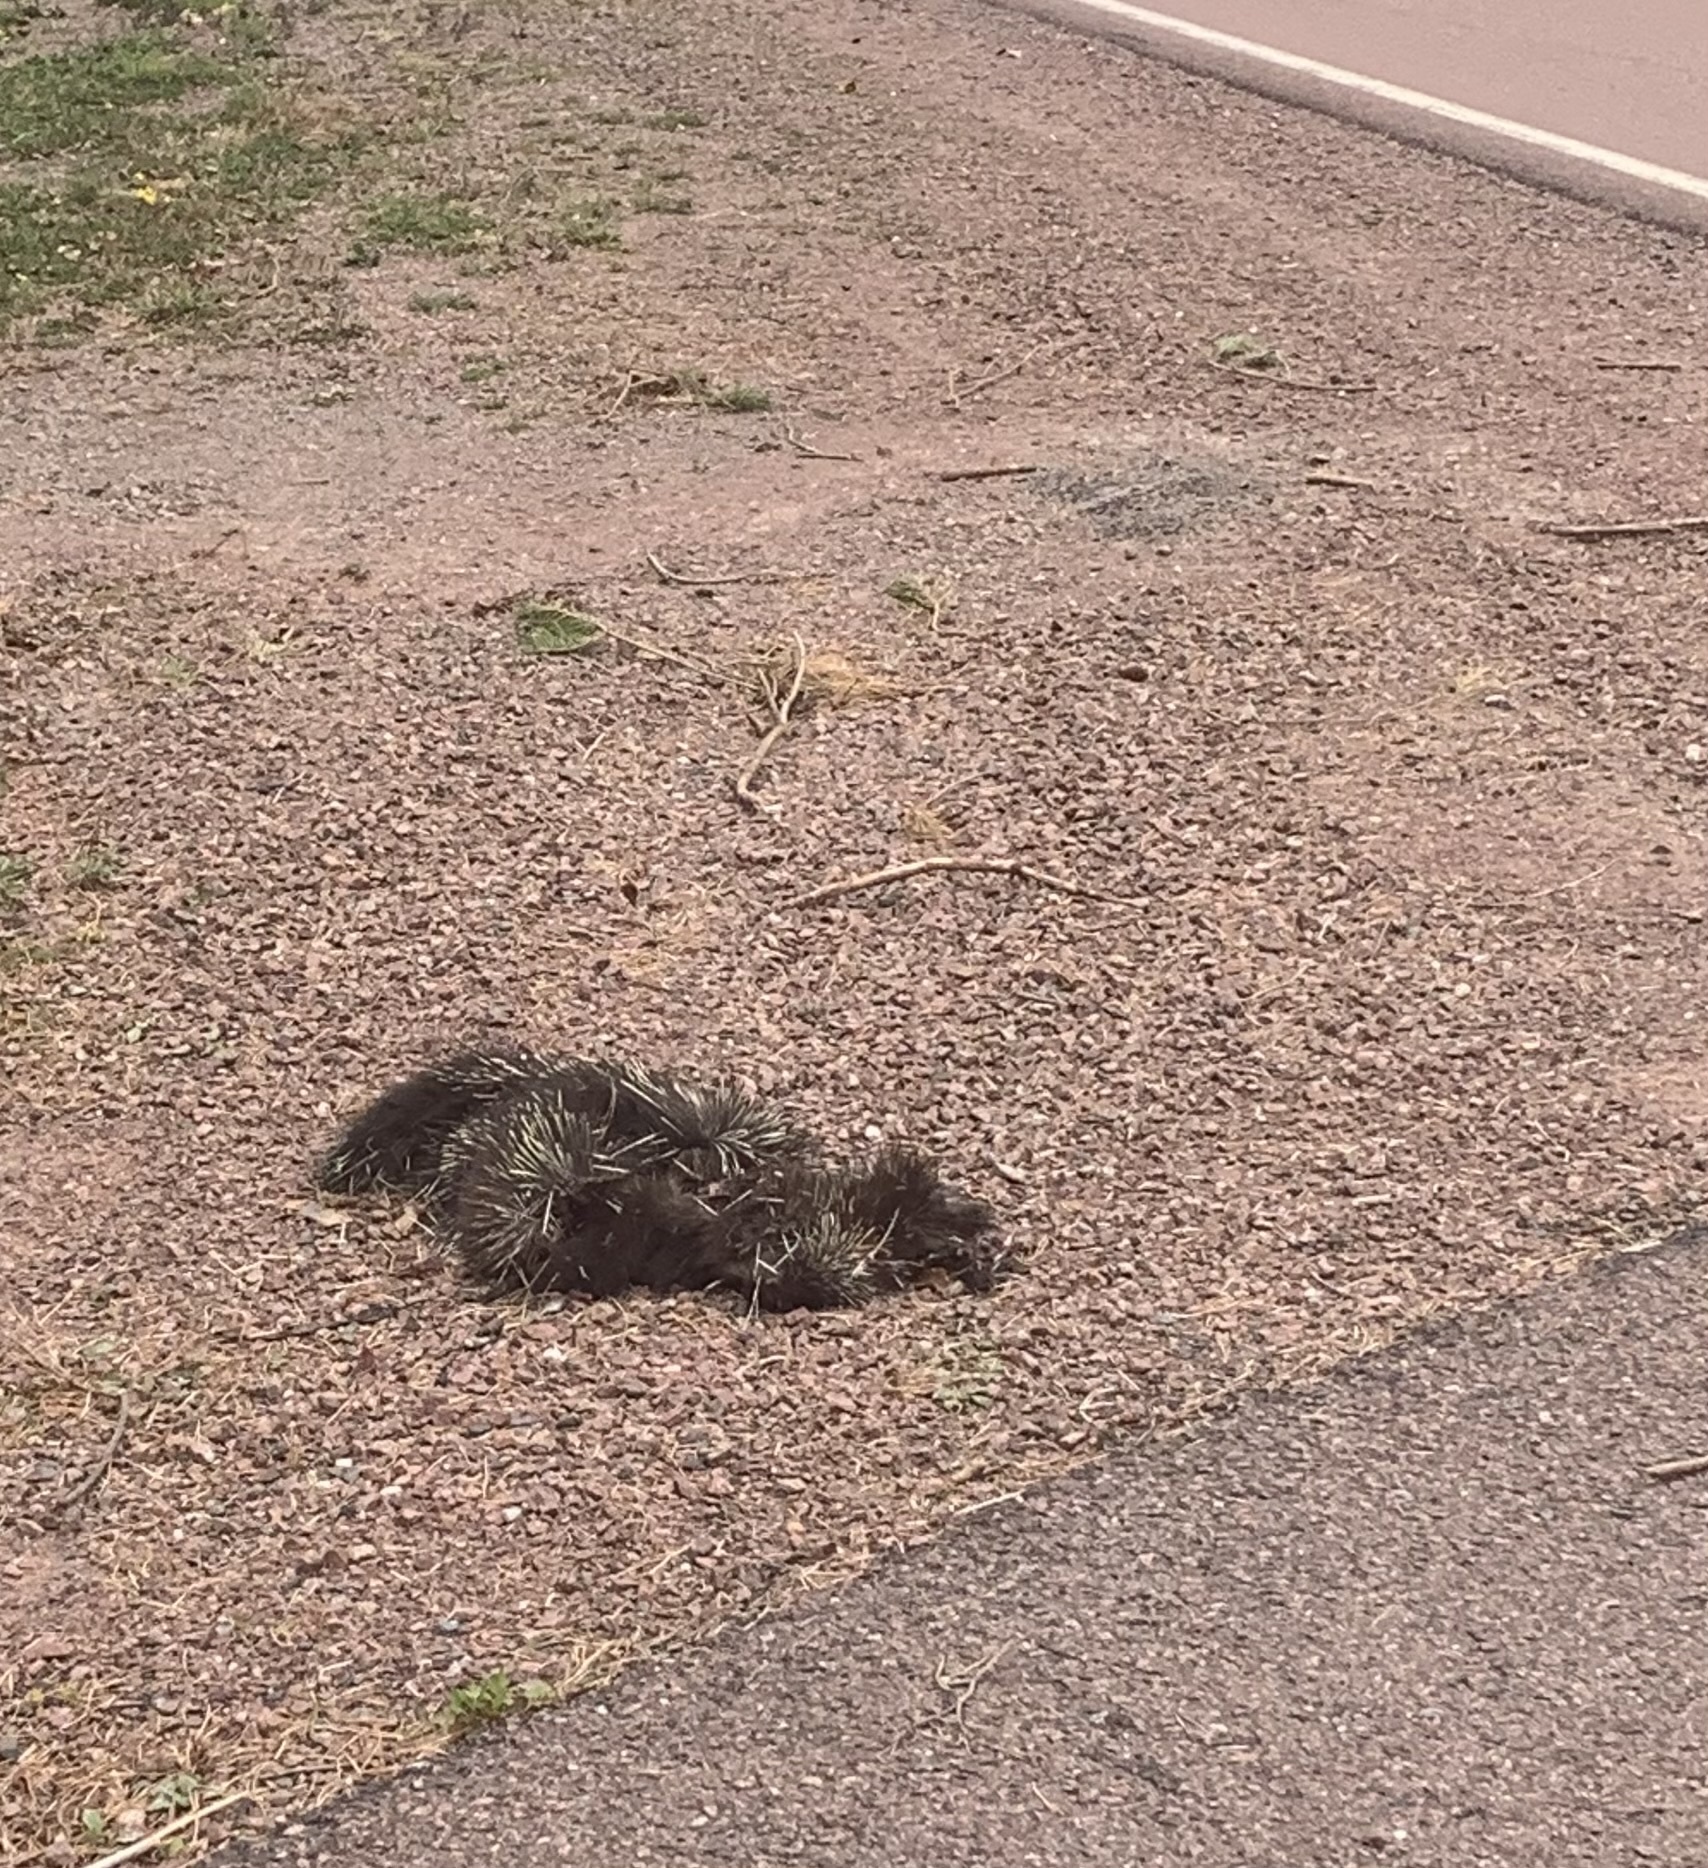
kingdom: Animalia
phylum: Chordata
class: Mammalia
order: Rodentia
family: Erethizontidae
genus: Erethizon
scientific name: Erethizon dorsatus
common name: North american porcupine
